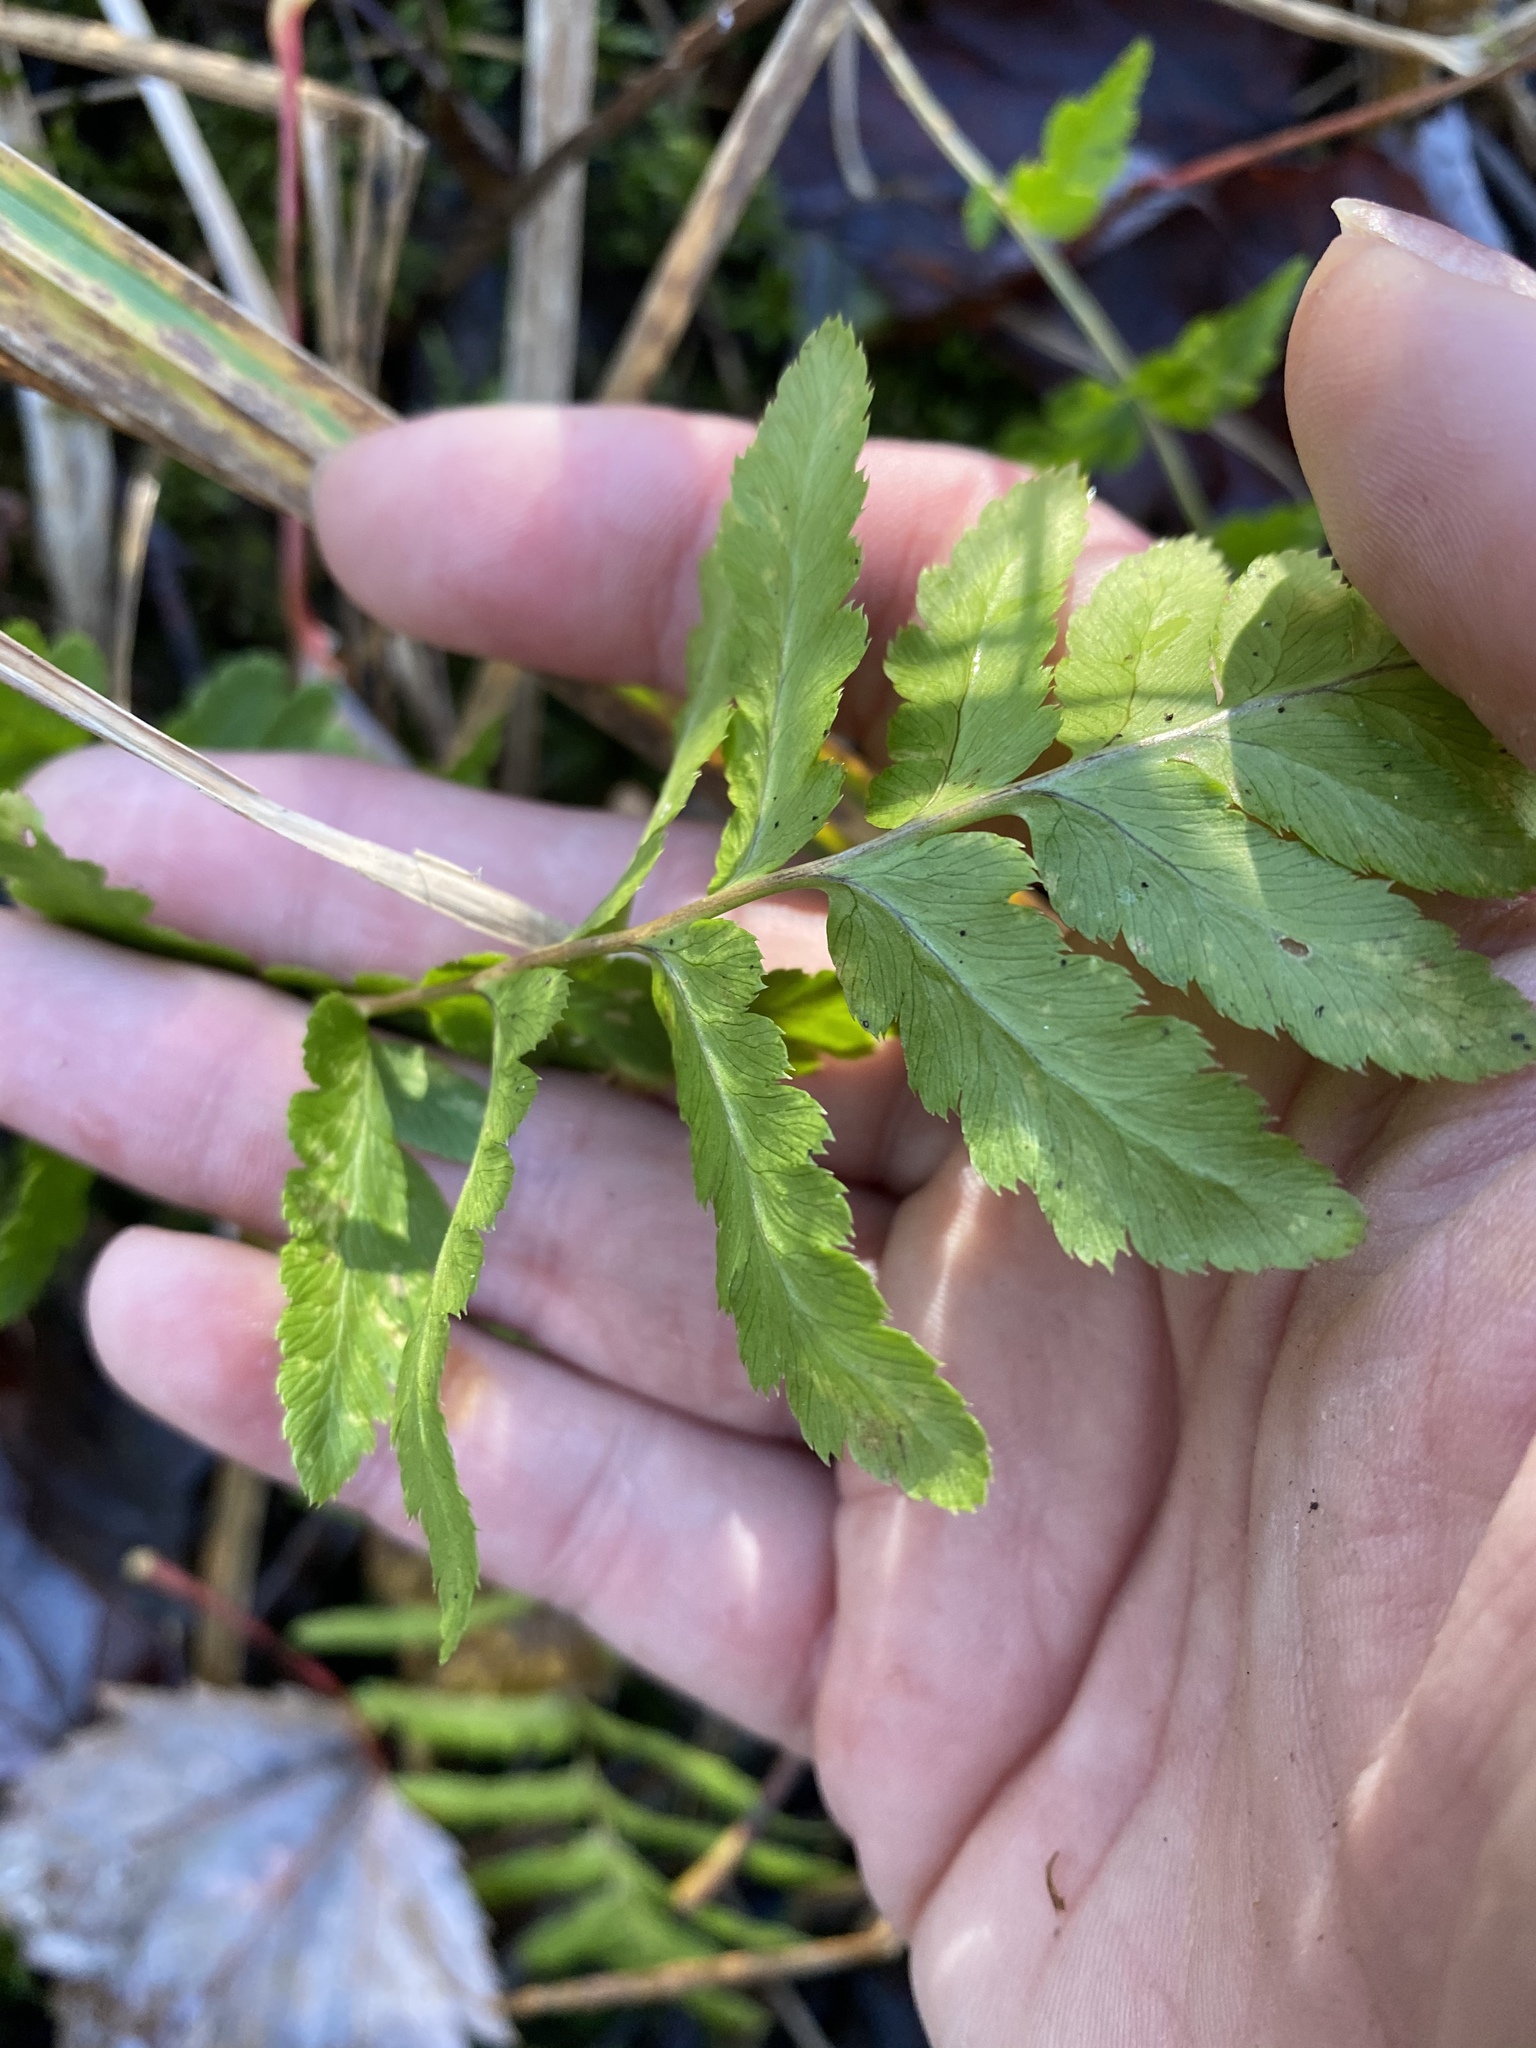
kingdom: Plantae
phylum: Tracheophyta
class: Polypodiopsida
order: Polypodiales
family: Dryopteridaceae
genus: Dryopteris
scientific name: Dryopteris cristata
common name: Crested wood fern
